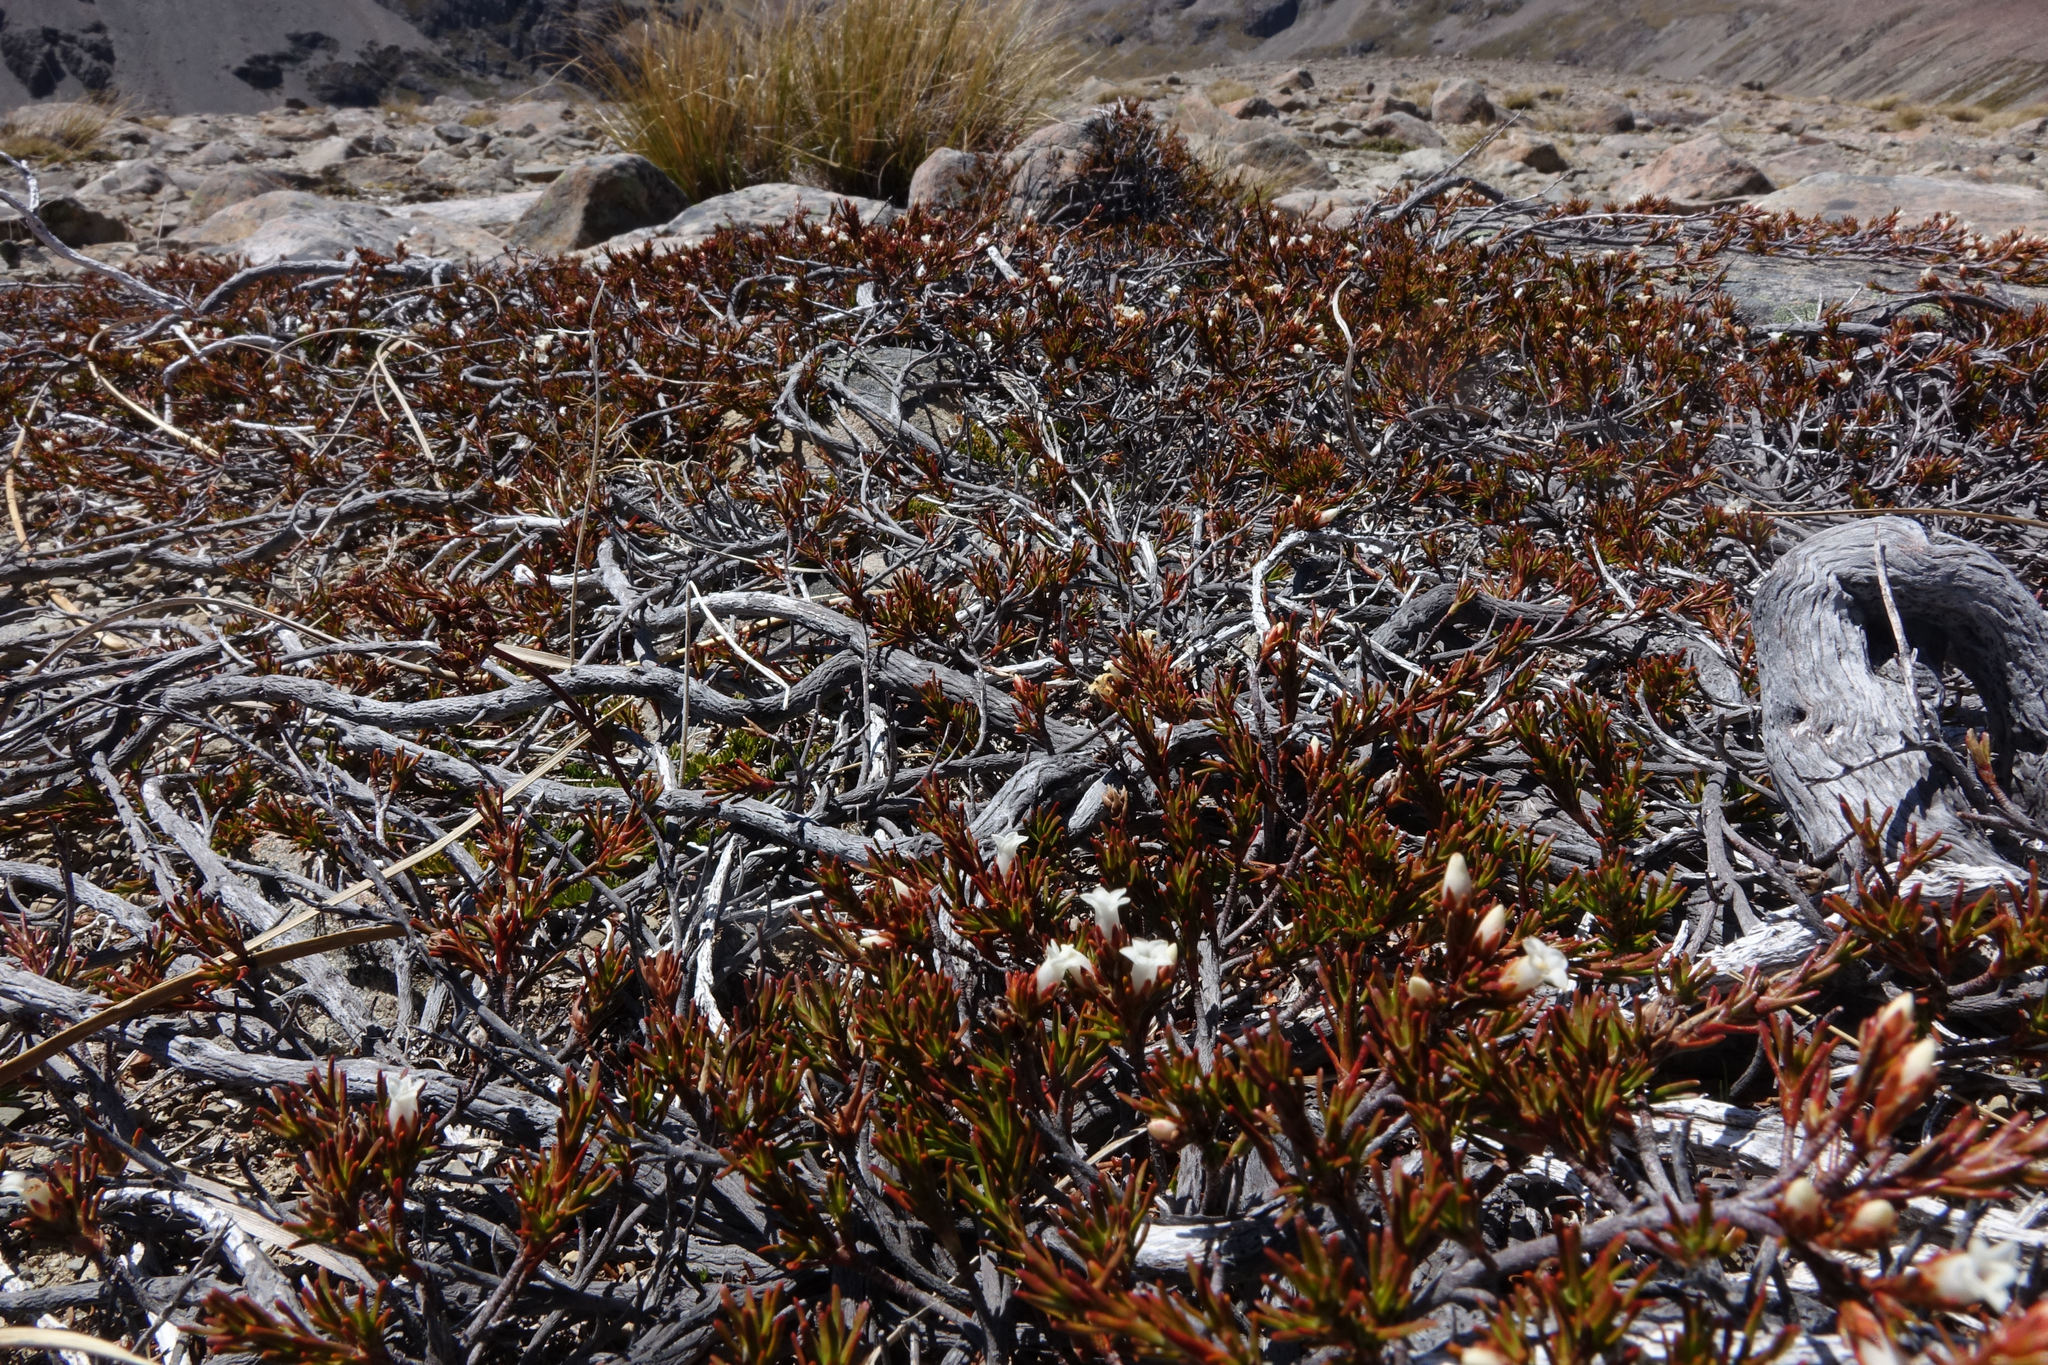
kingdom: Plantae
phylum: Tracheophyta
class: Magnoliopsida
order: Ericales
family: Ericaceae
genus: Dracophyllum
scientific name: Dracophyllum pronum
